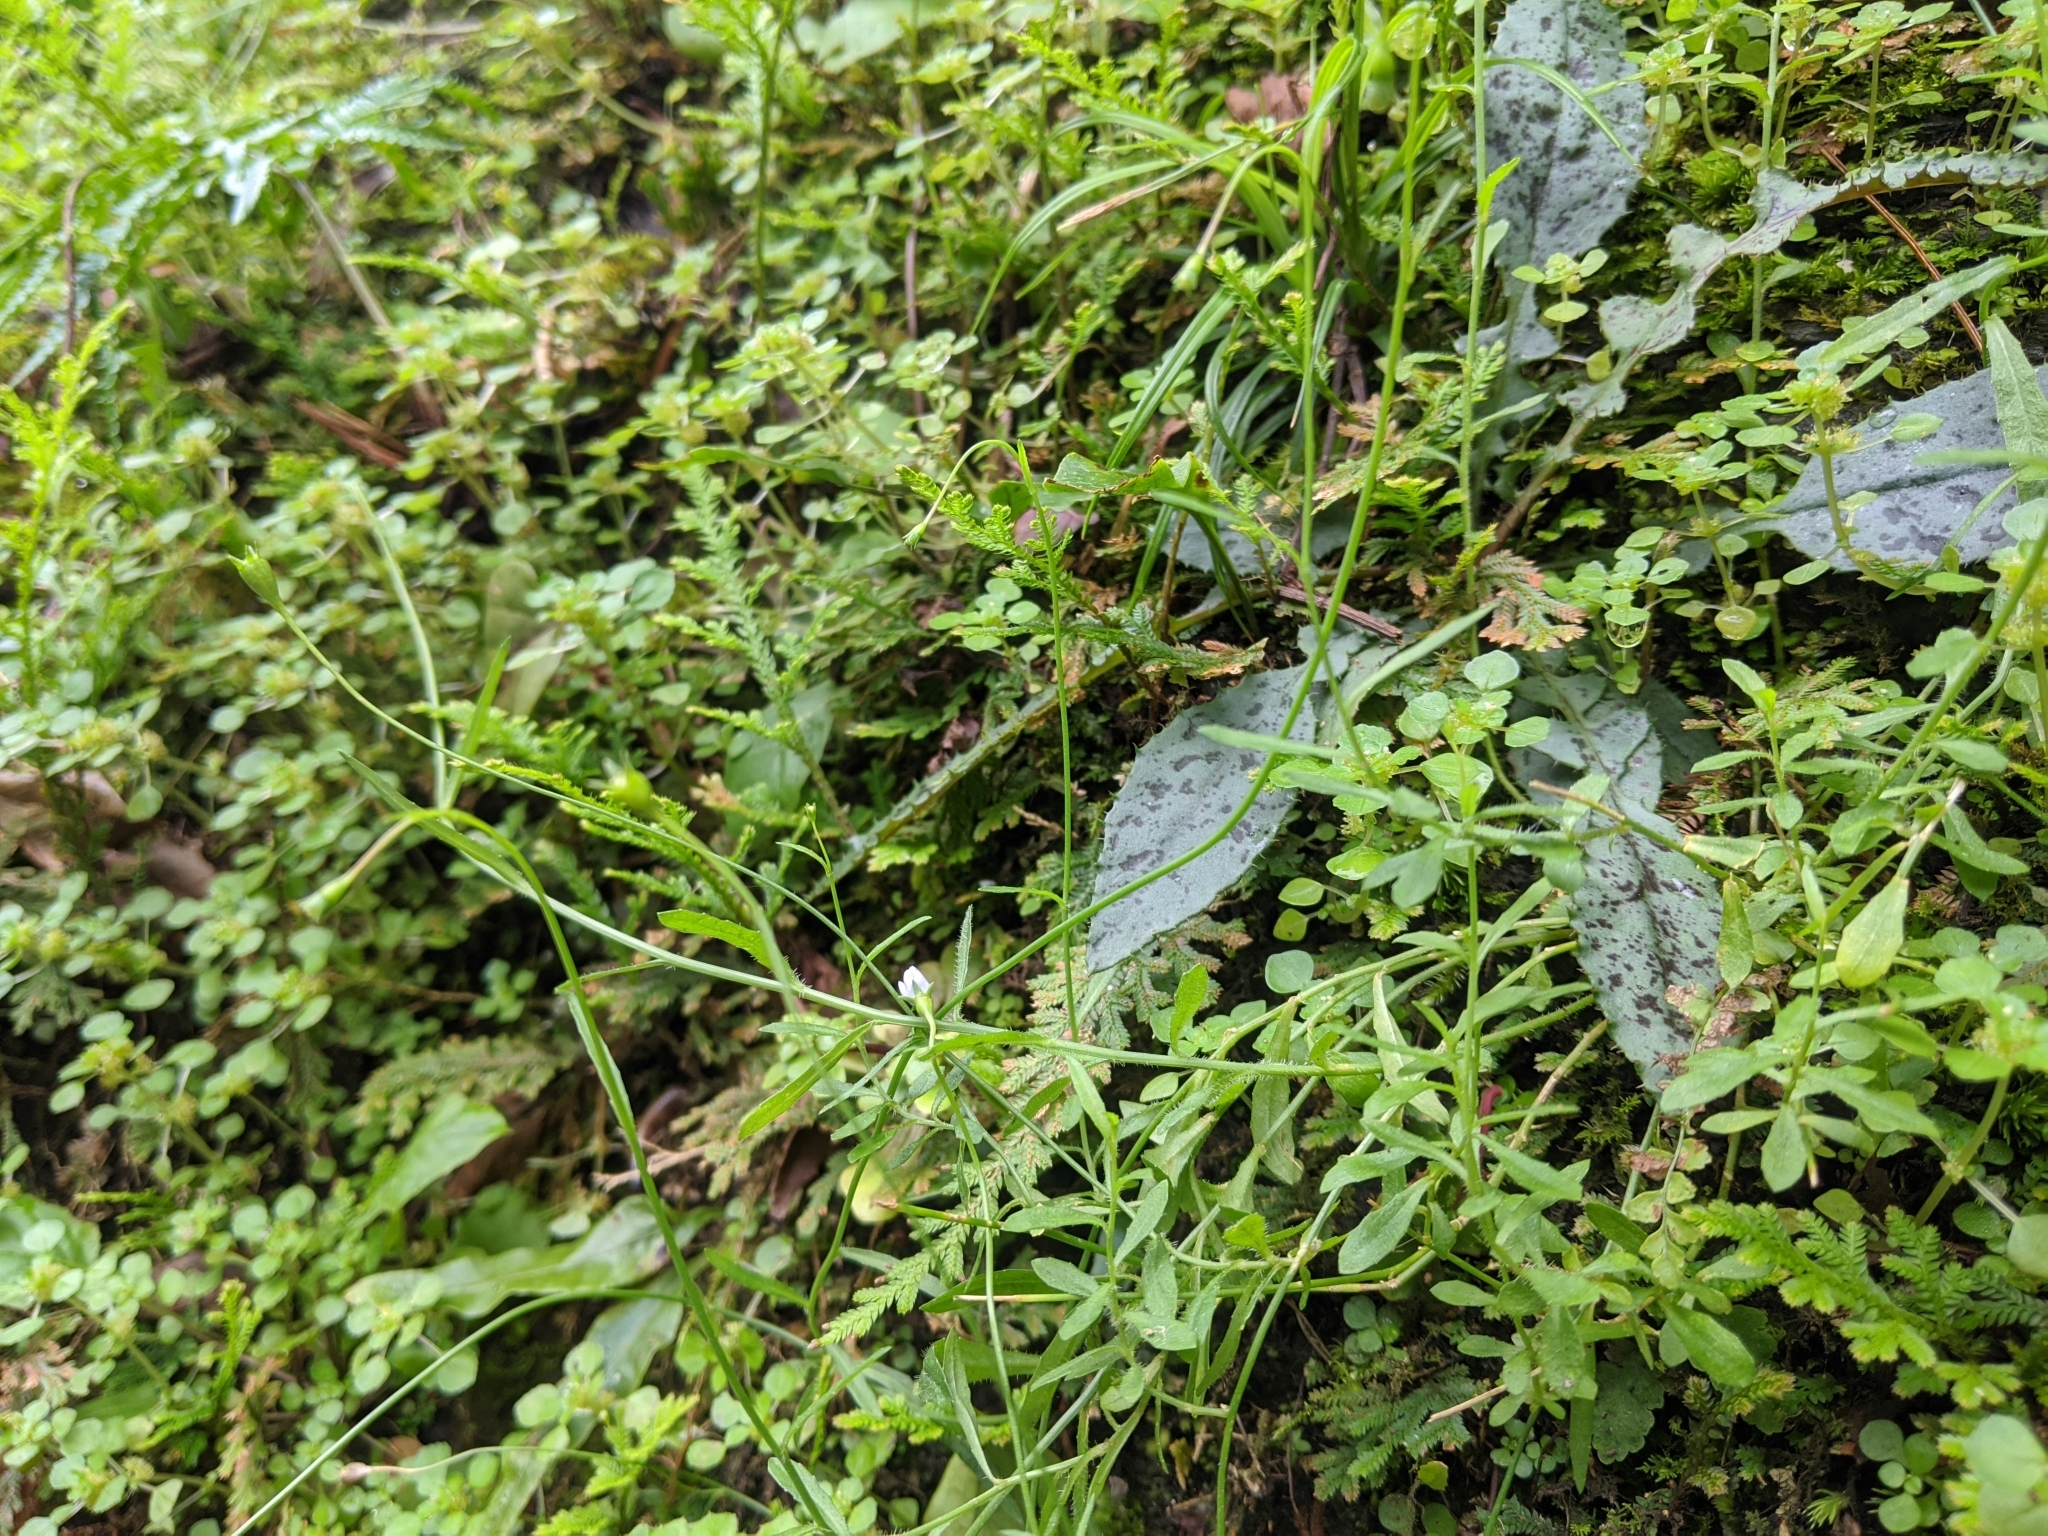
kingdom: Plantae
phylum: Tracheophyta
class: Magnoliopsida
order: Asterales
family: Campanulaceae
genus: Wahlenbergia
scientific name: Wahlenbergia marginata
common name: Southern rockbell
